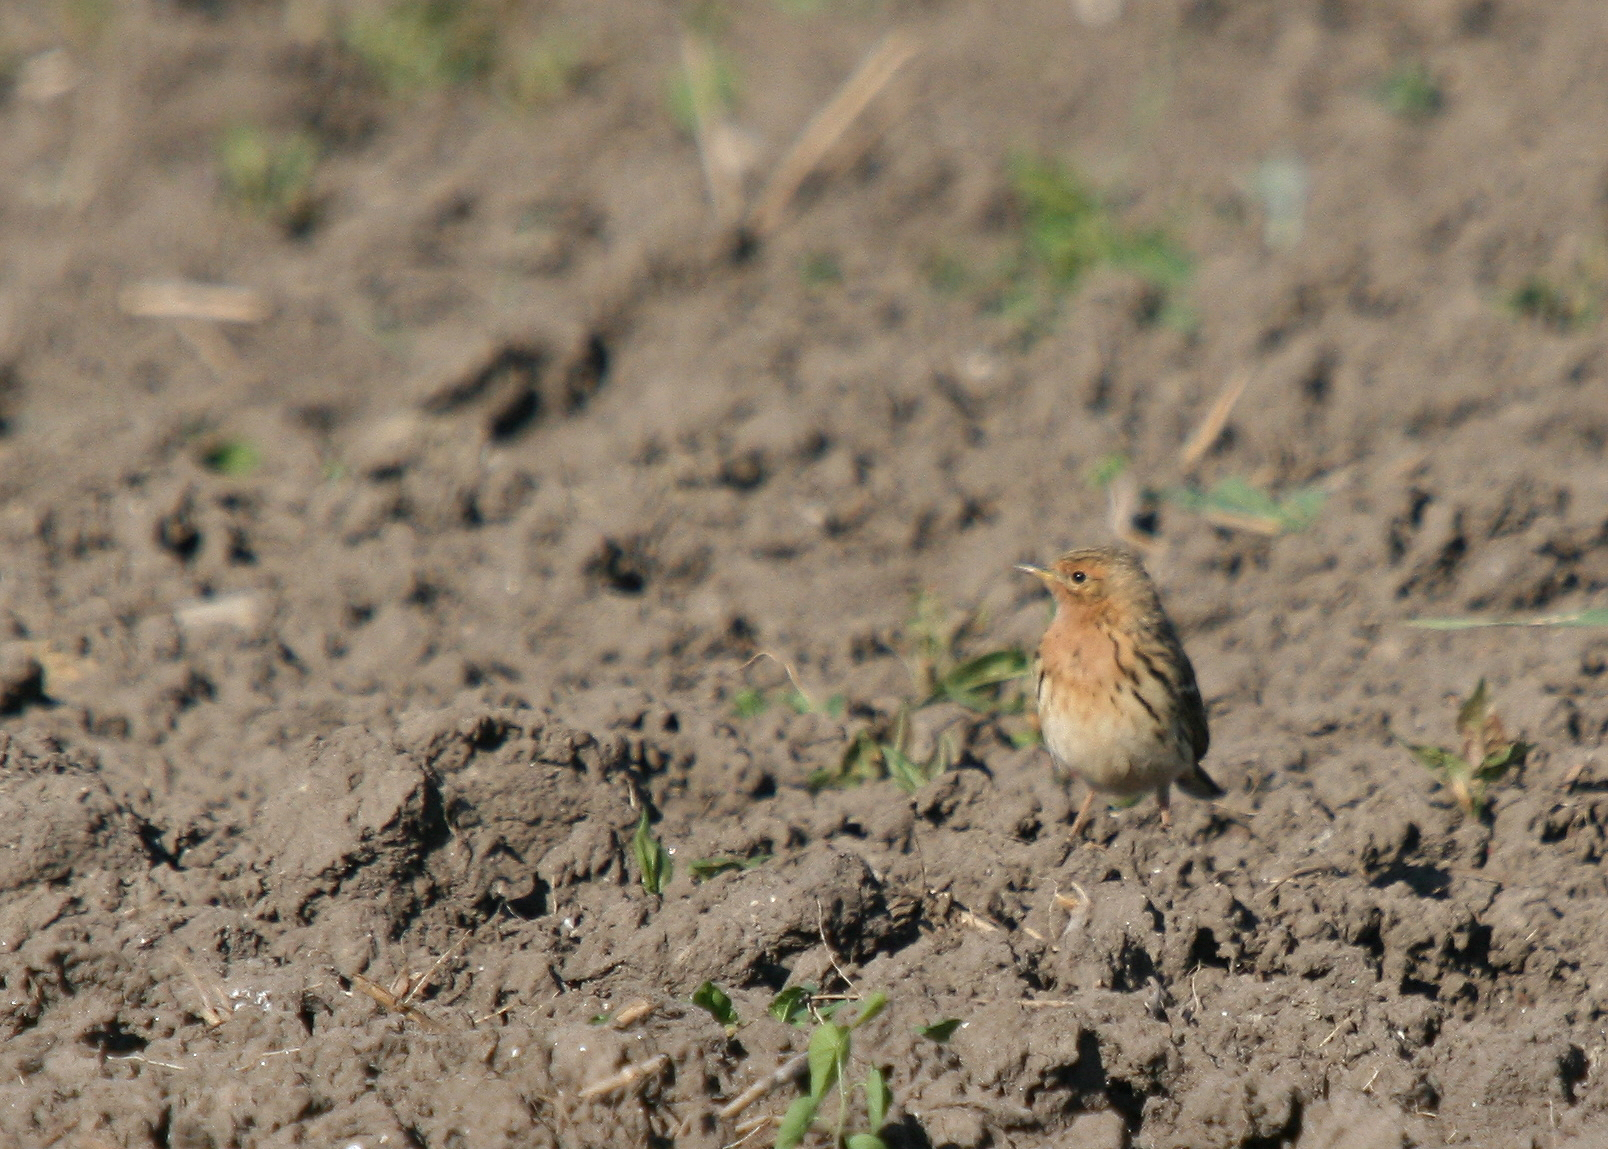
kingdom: Animalia
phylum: Chordata
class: Aves
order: Passeriformes
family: Motacillidae
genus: Anthus
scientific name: Anthus cervinus
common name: Red-throated pipit
